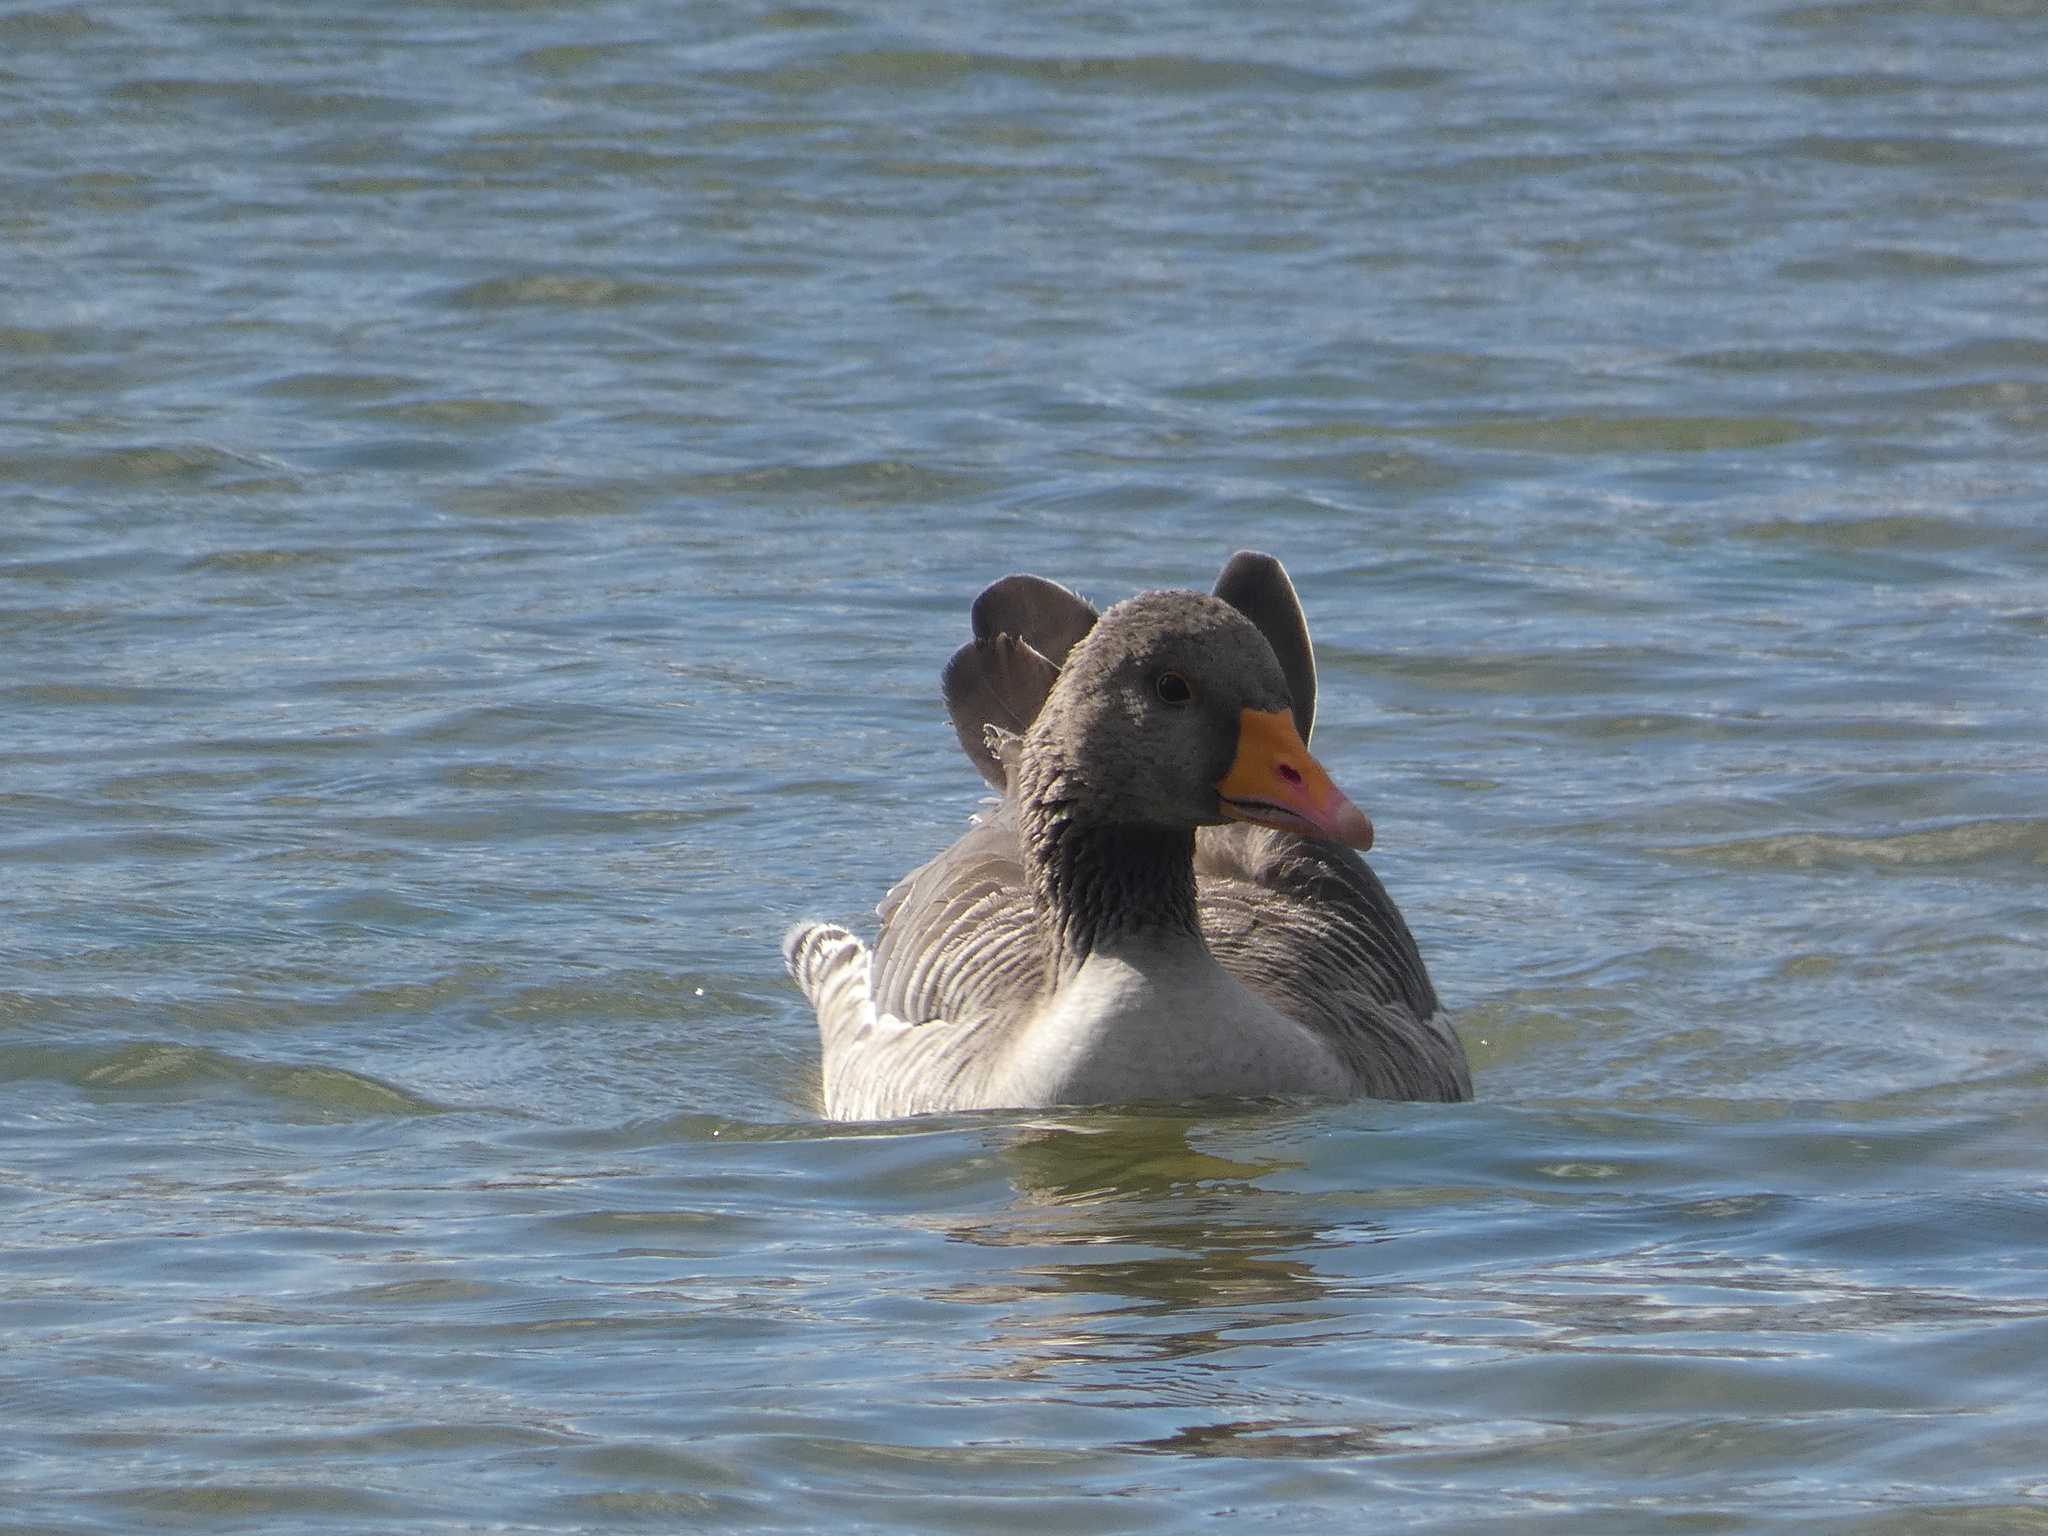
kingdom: Animalia
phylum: Chordata
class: Aves
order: Anseriformes
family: Anatidae
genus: Anser
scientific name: Anser anser
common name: Greylag goose
